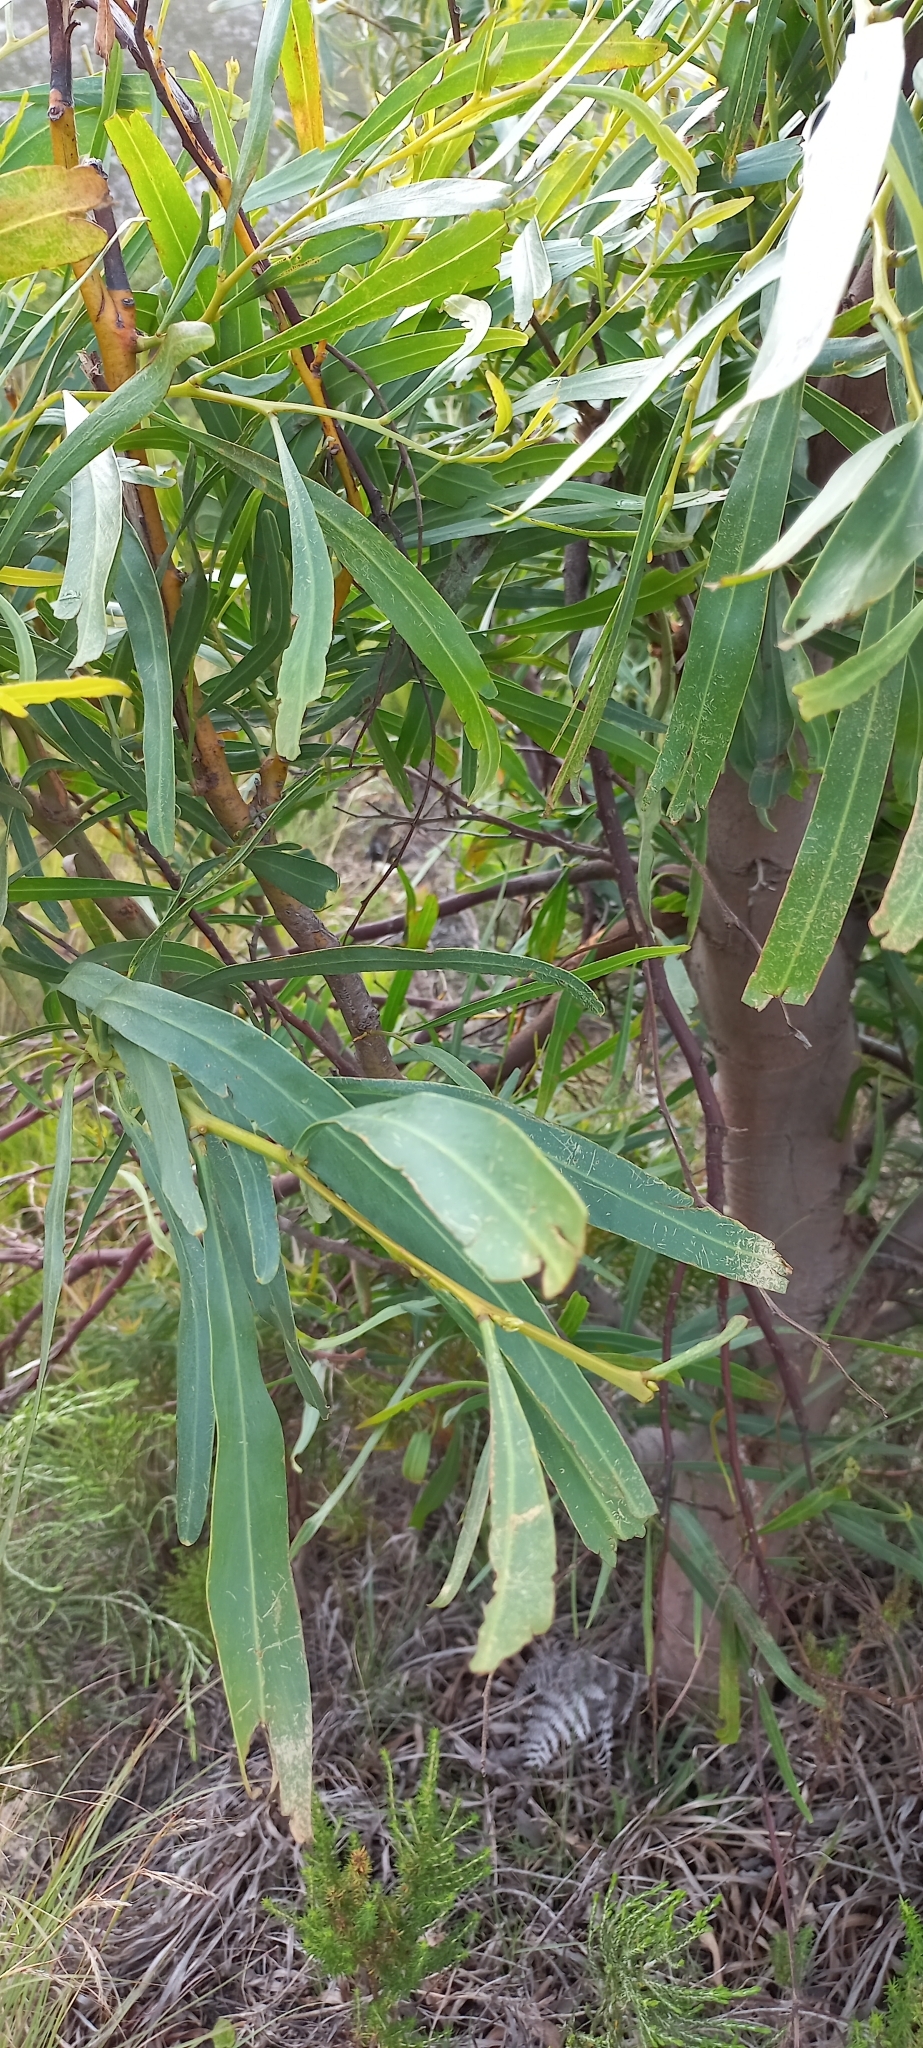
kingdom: Plantae
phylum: Tracheophyta
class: Magnoliopsida
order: Fabales
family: Fabaceae
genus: Acacia
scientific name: Acacia saligna
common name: Orange wattle
